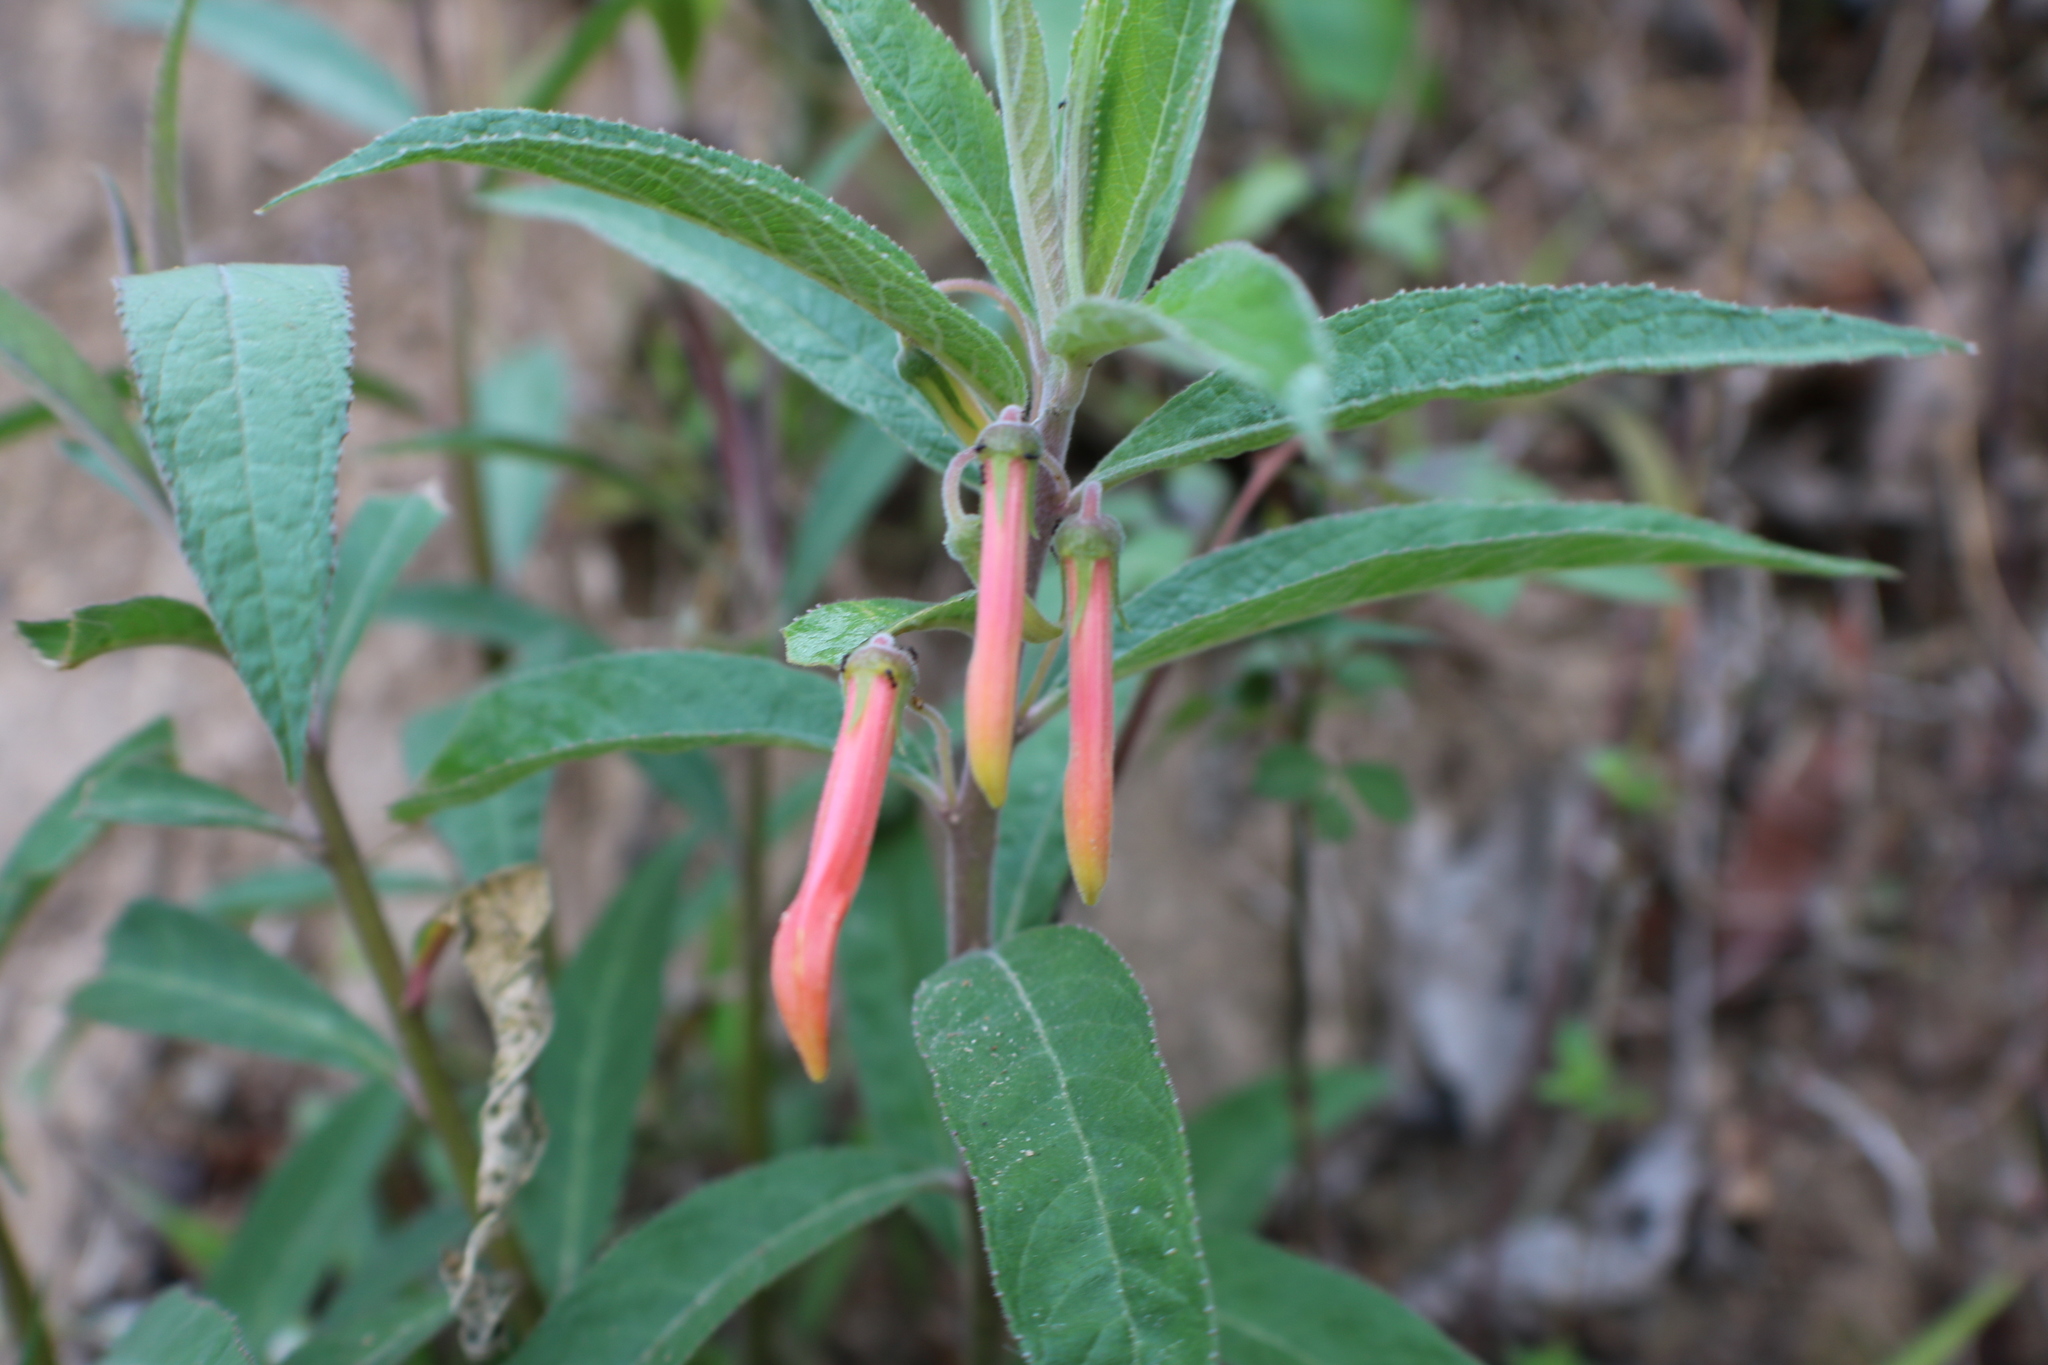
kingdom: Plantae
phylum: Tracheophyta
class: Magnoliopsida
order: Asterales
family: Campanulaceae
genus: Lobelia
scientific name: Lobelia laxiflora
